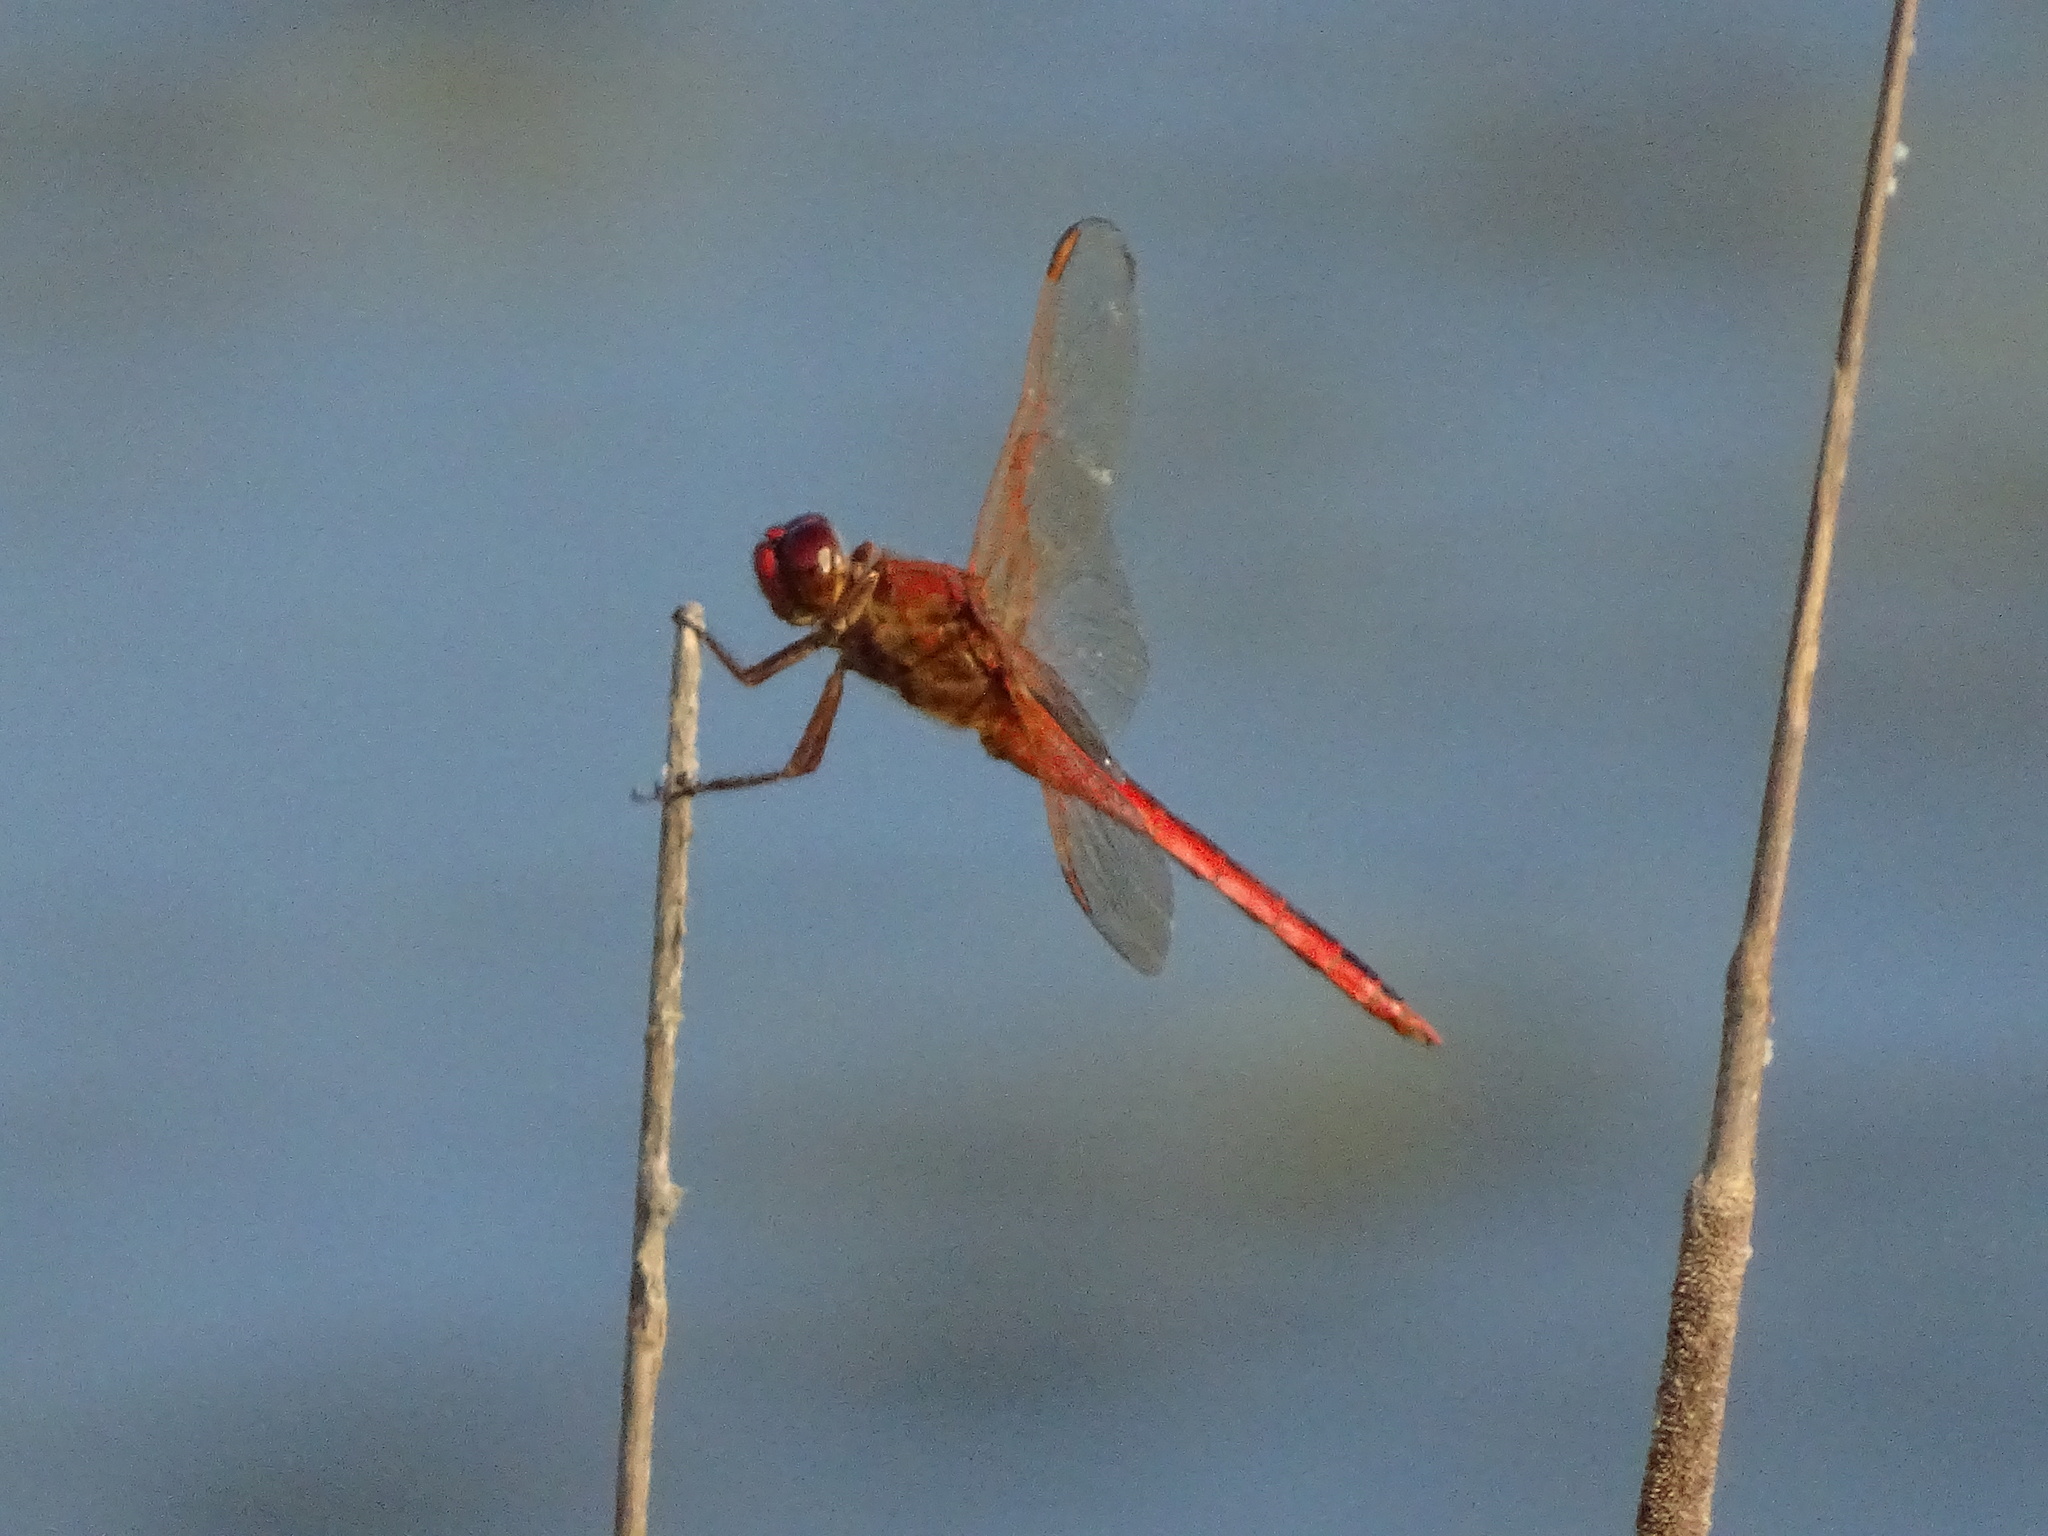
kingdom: Animalia
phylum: Arthropoda
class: Insecta
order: Odonata
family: Libellulidae
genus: Libellula
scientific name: Libellula needhami
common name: Needham's skimmer
